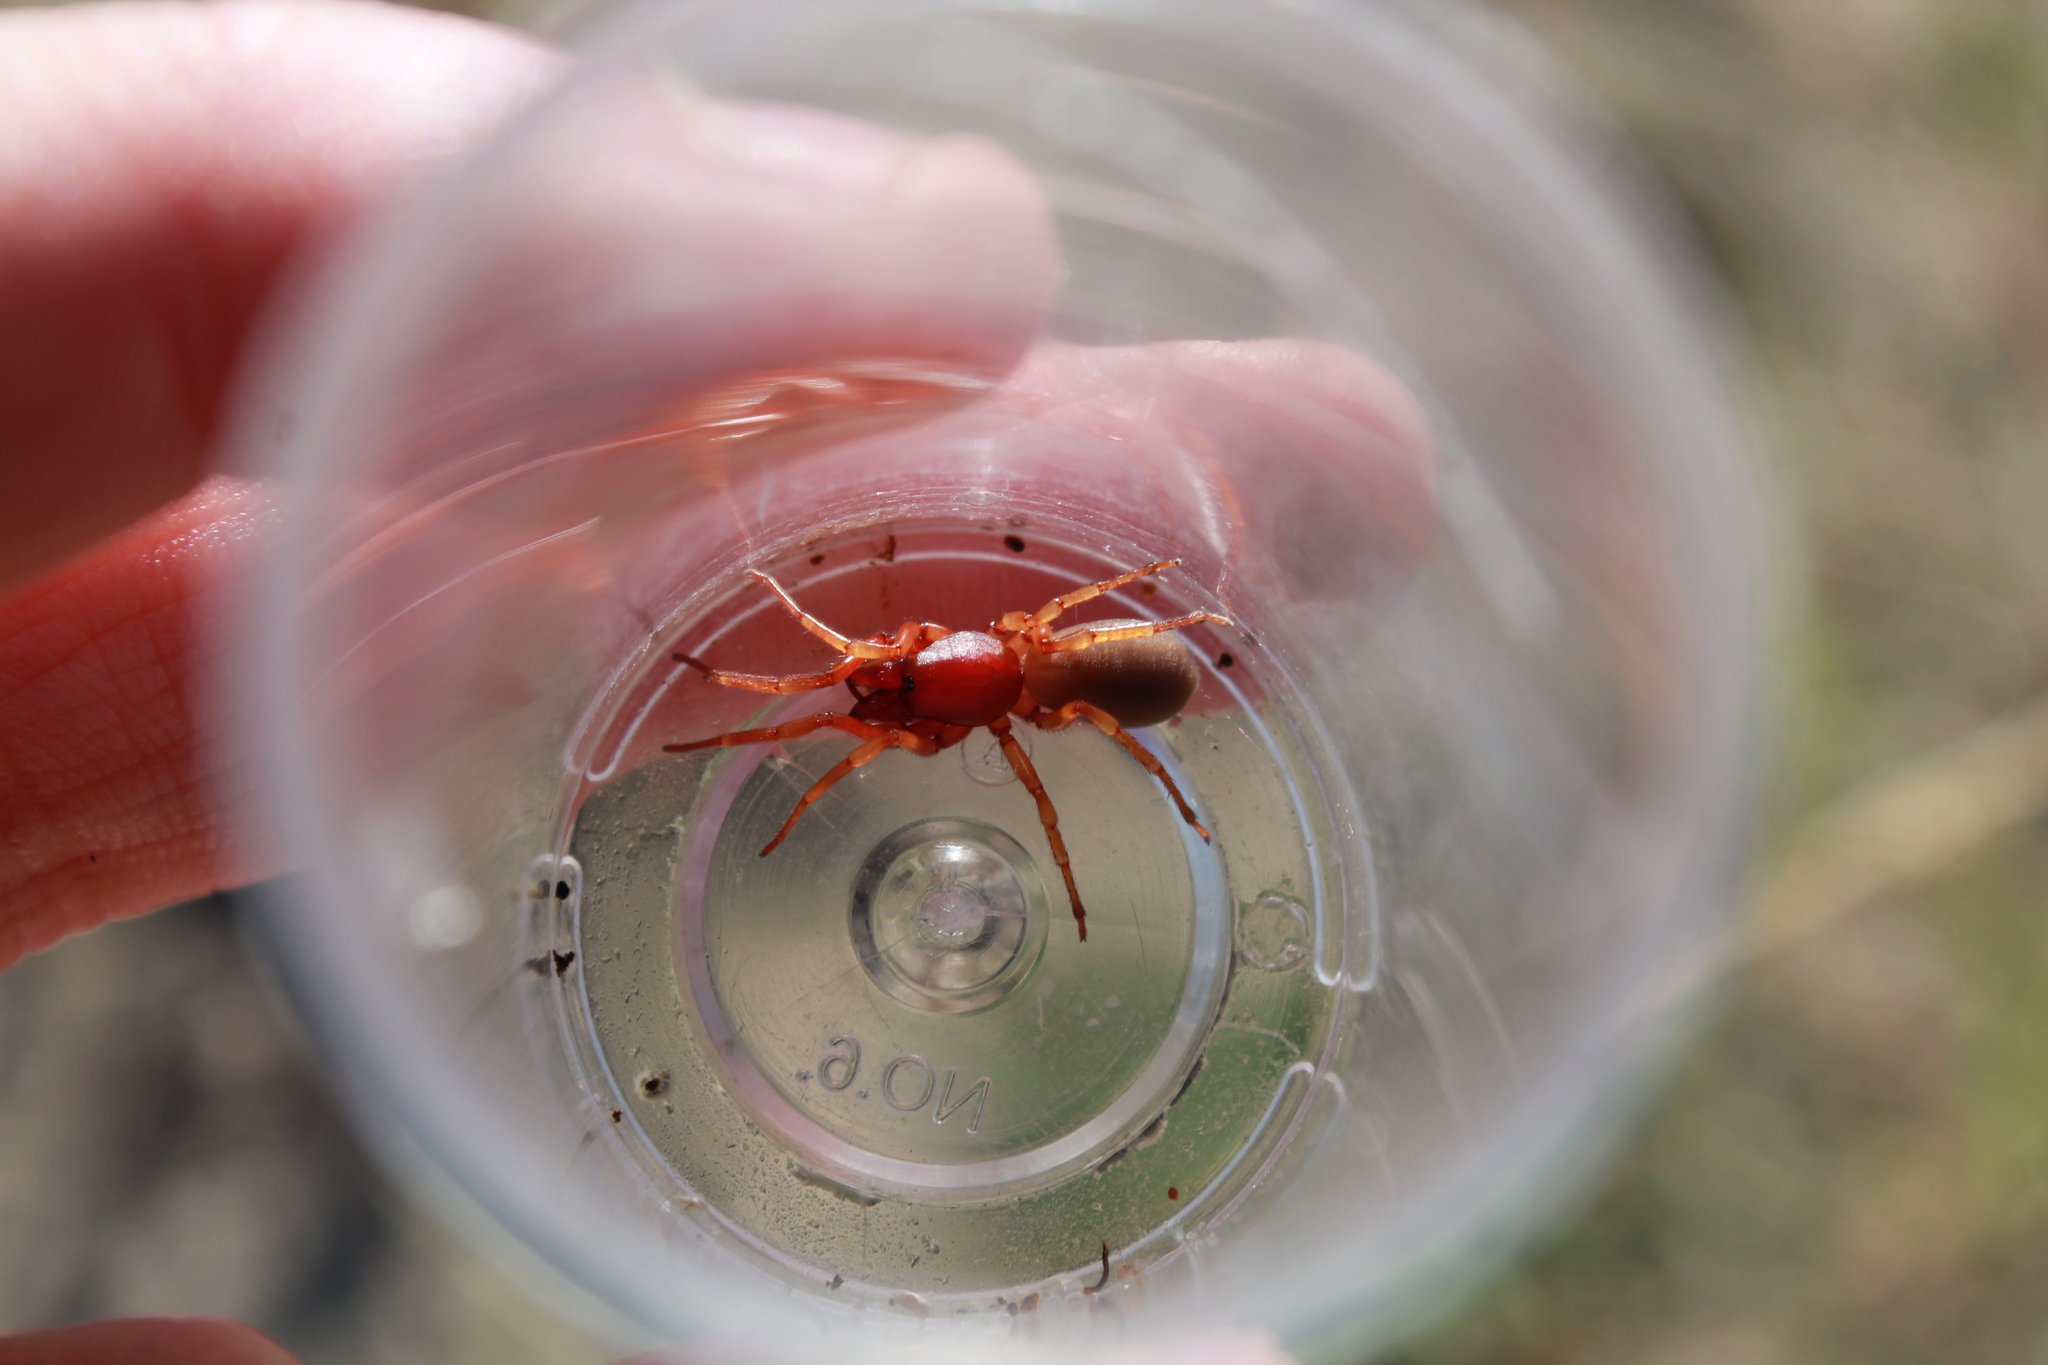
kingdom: Animalia
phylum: Arthropoda
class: Arachnida
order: Araneae
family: Dysderidae
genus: Dysdera
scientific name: Dysdera crocata
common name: Woodlouse spider
